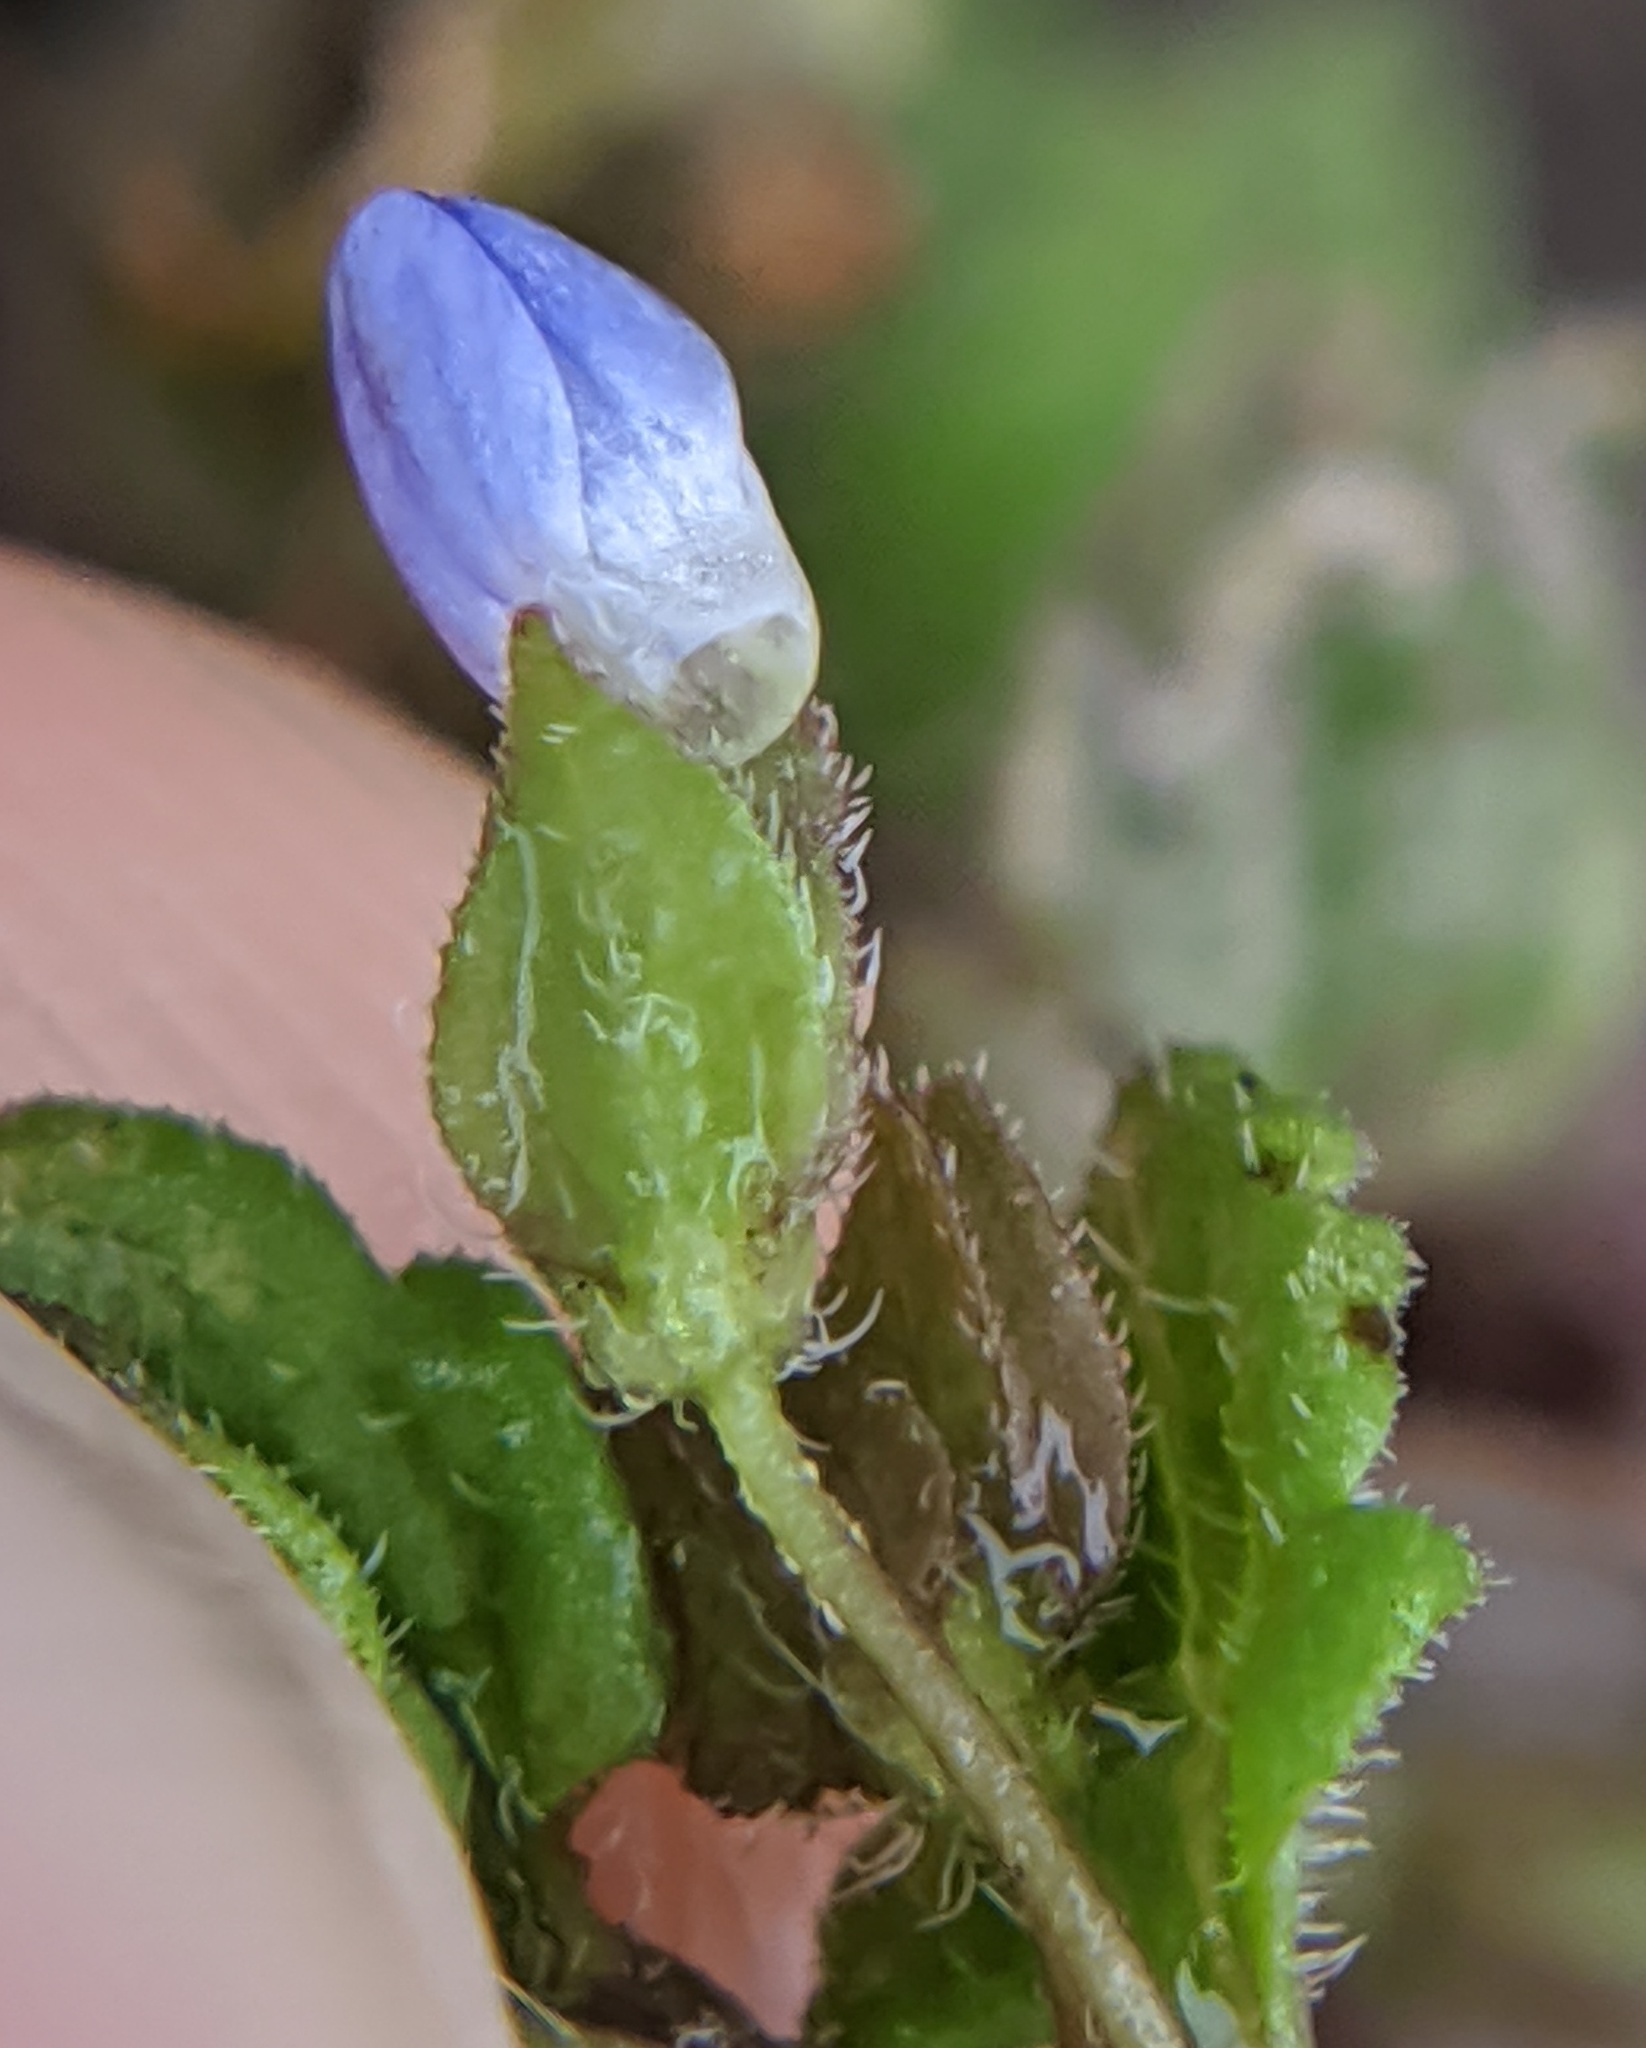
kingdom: Plantae
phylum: Tracheophyta
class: Magnoliopsida
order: Lamiales
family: Plantaginaceae
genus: Veronica
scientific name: Veronica polita
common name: Grey field-speedwell
